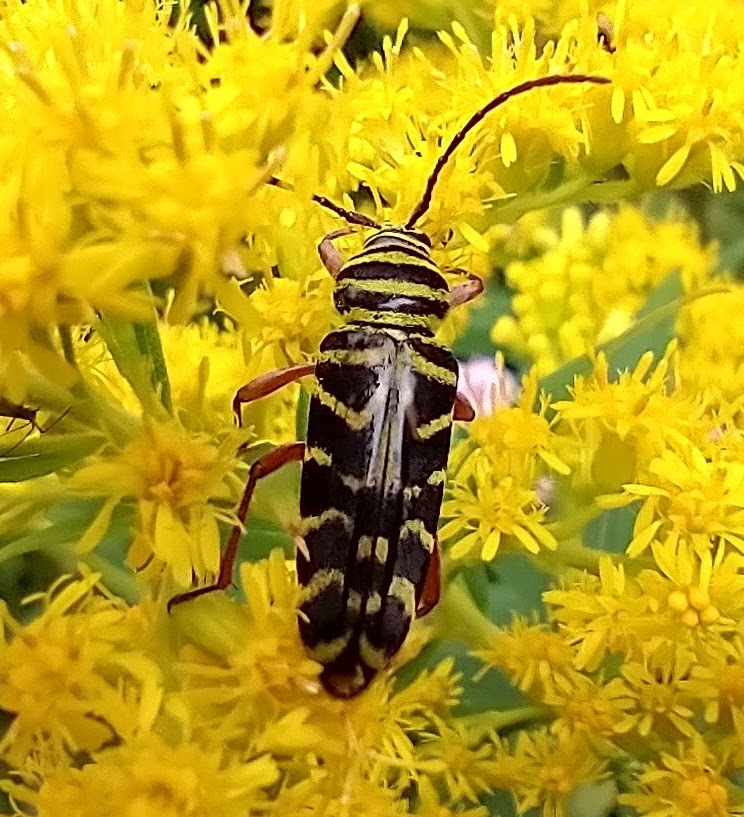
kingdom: Animalia
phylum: Arthropoda
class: Insecta
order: Coleoptera
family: Cerambycidae
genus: Megacyllene
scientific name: Megacyllene robiniae
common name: Locust borer
